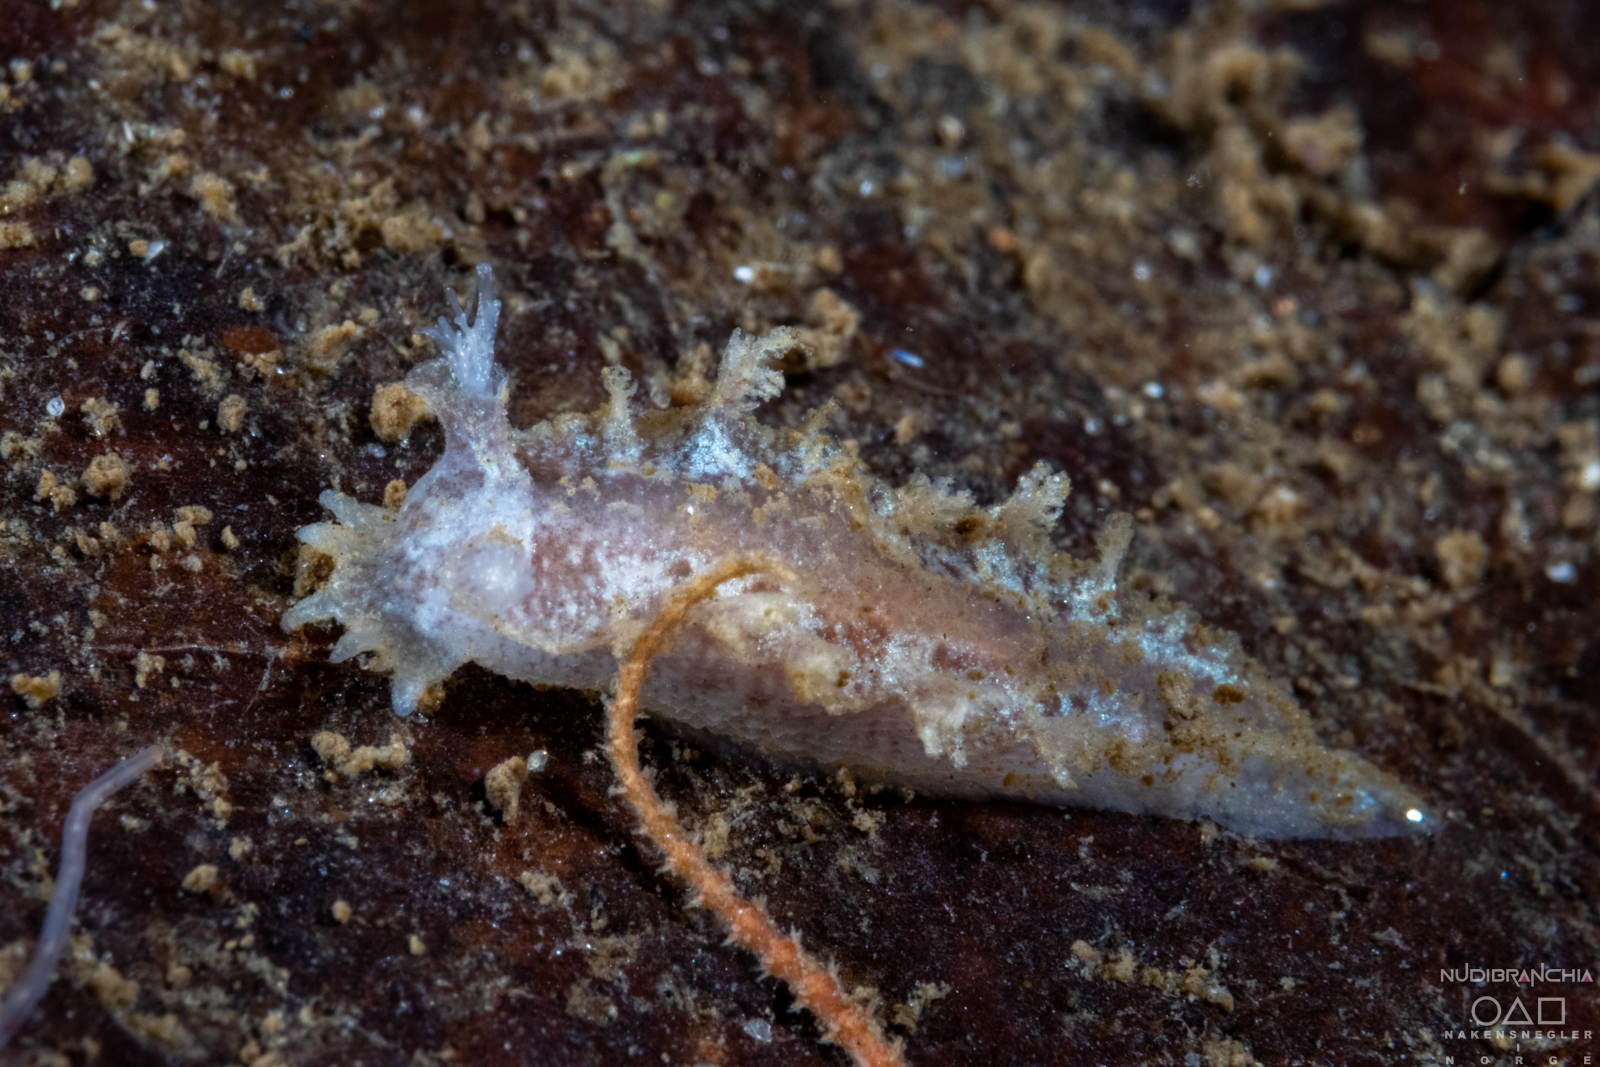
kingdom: Animalia
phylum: Mollusca
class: Gastropoda
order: Nudibranchia
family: Tritoniidae
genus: Duvaucelia
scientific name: Duvaucelia plebeia
